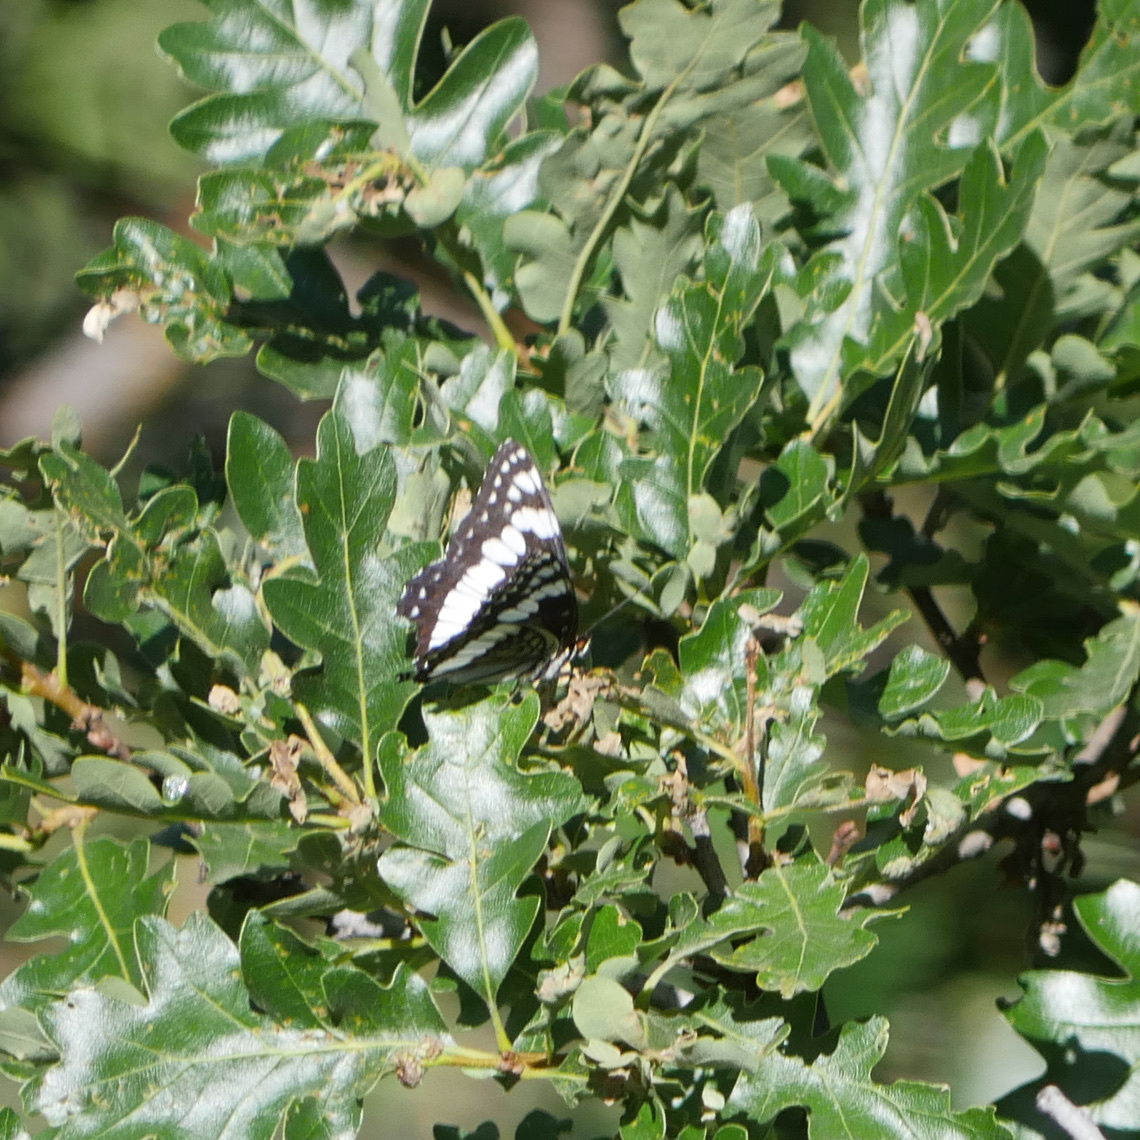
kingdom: Animalia
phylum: Arthropoda
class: Insecta
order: Lepidoptera
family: Nymphalidae
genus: Limenitis
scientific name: Limenitis weidemeyerii
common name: Weidemeyer's admiral
